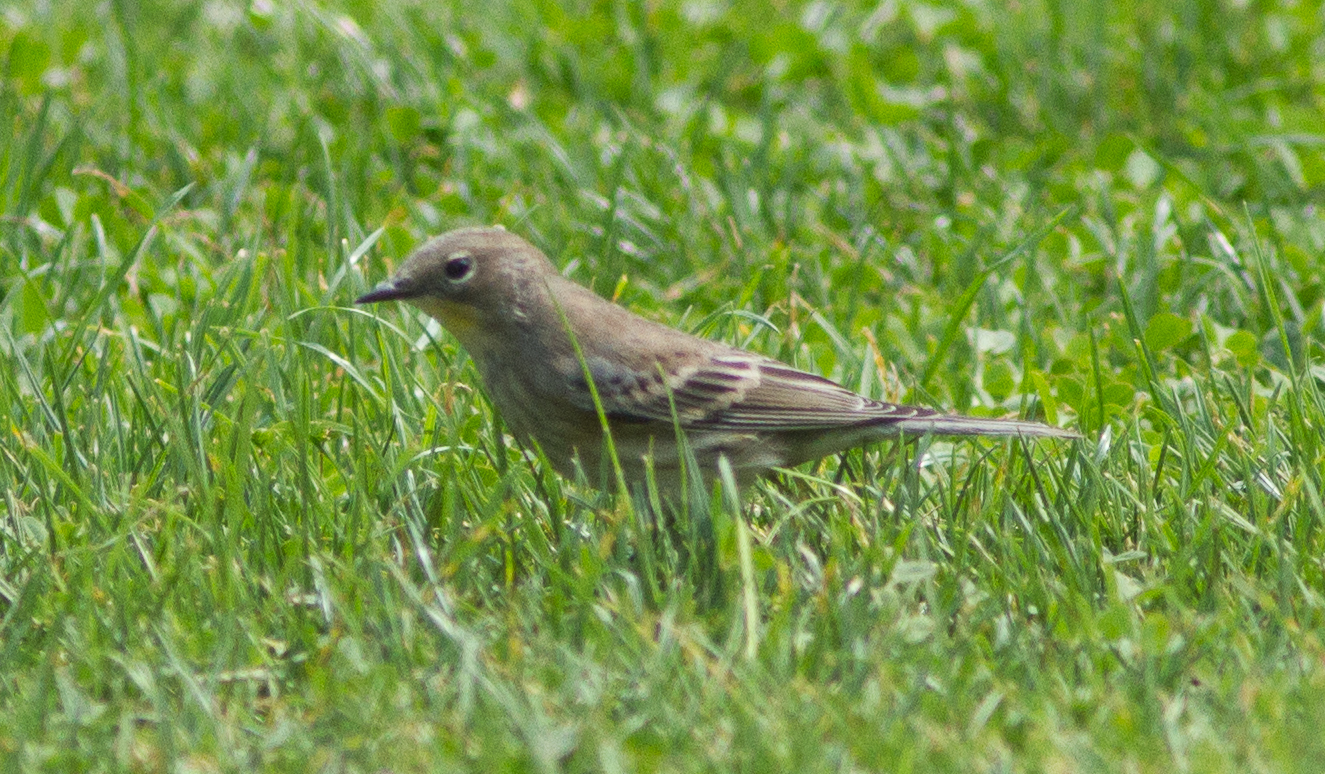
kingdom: Animalia
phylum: Chordata
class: Aves
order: Passeriformes
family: Parulidae
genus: Setophaga
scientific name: Setophaga auduboni
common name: Audubon's warbler
